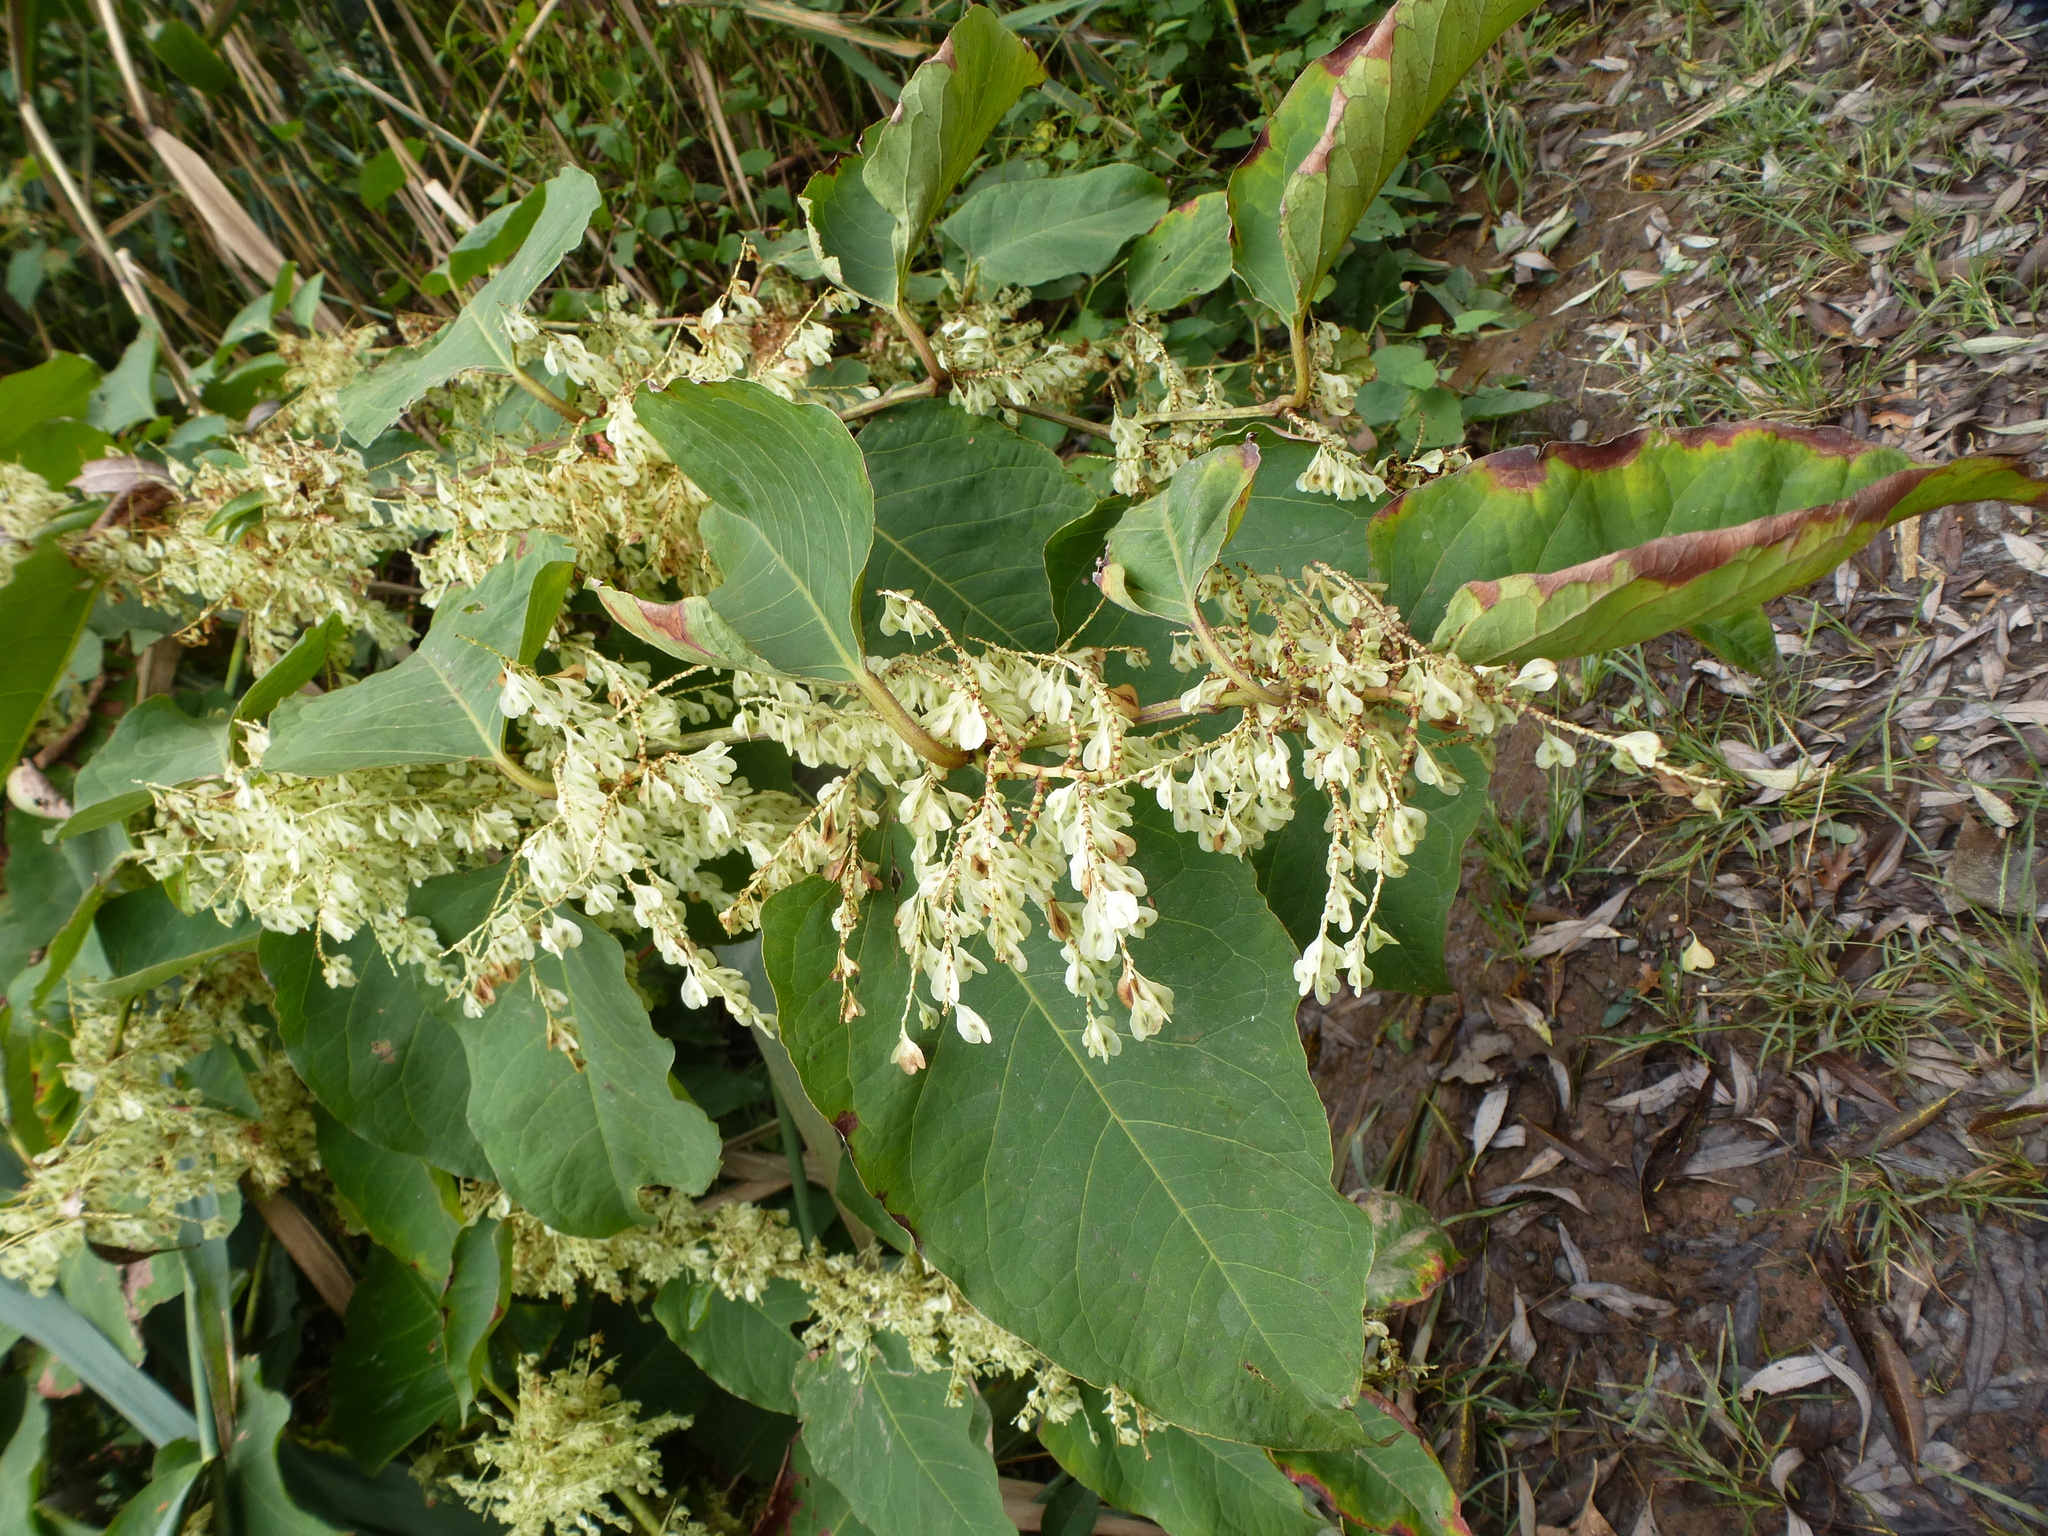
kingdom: Plantae
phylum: Tracheophyta
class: Magnoliopsida
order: Caryophyllales
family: Polygonaceae
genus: Reynoutria
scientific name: Reynoutria japonica
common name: Japanese knotweed
